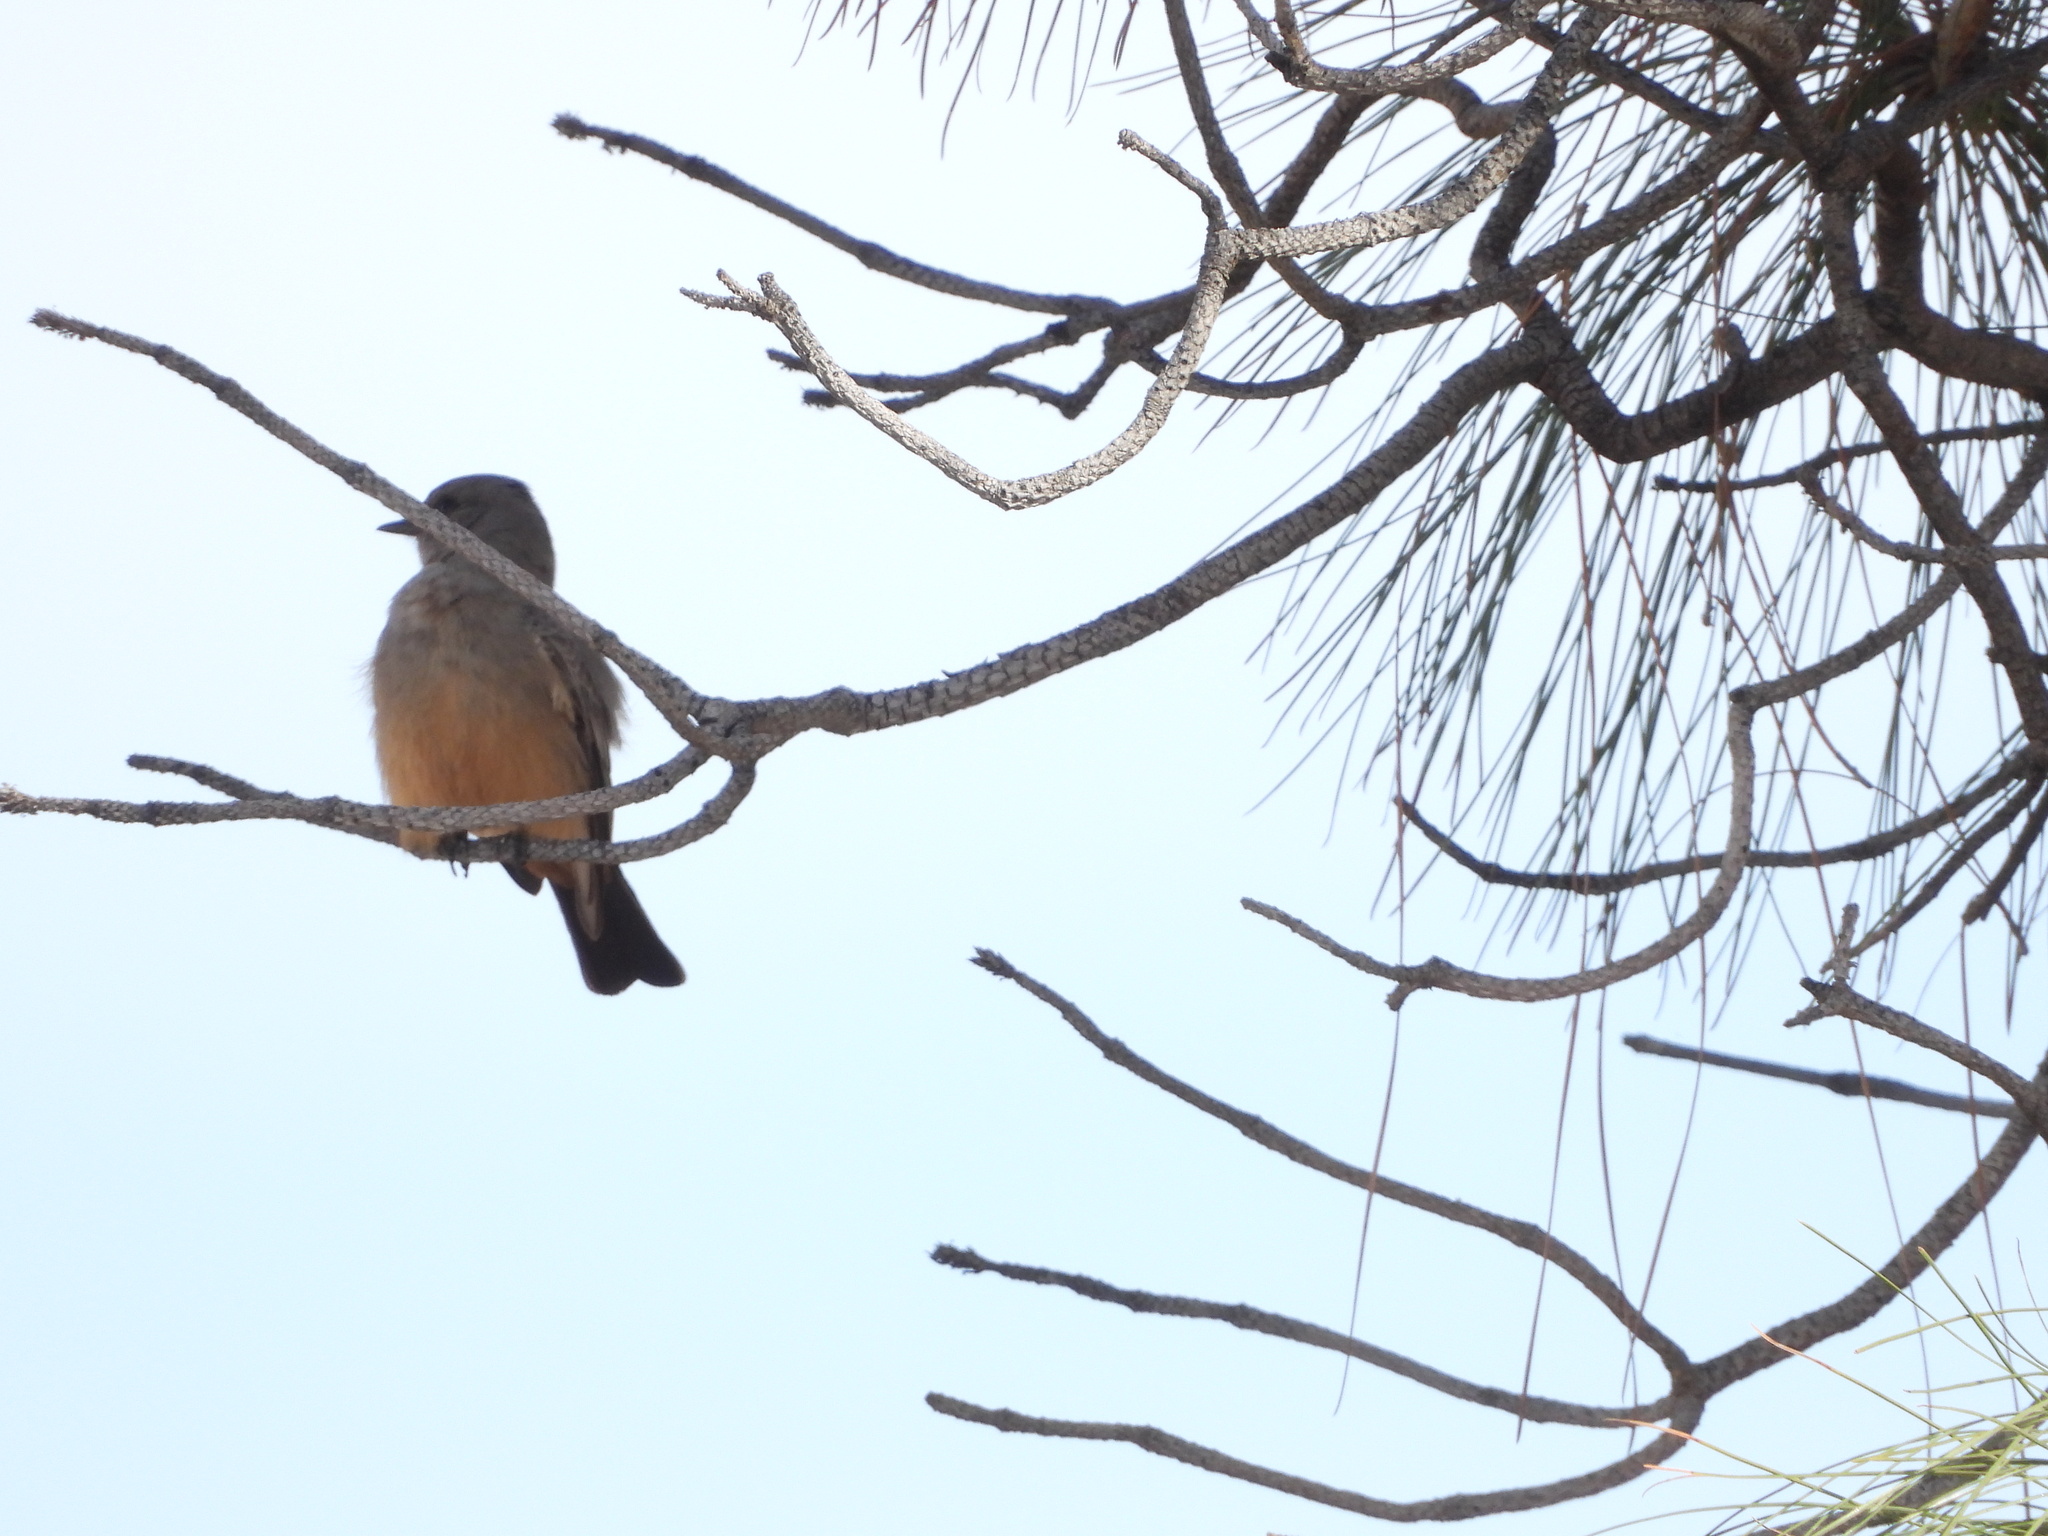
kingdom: Animalia
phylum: Chordata
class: Aves
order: Passeriformes
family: Tyrannidae
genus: Sayornis
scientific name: Sayornis saya
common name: Say's phoebe
